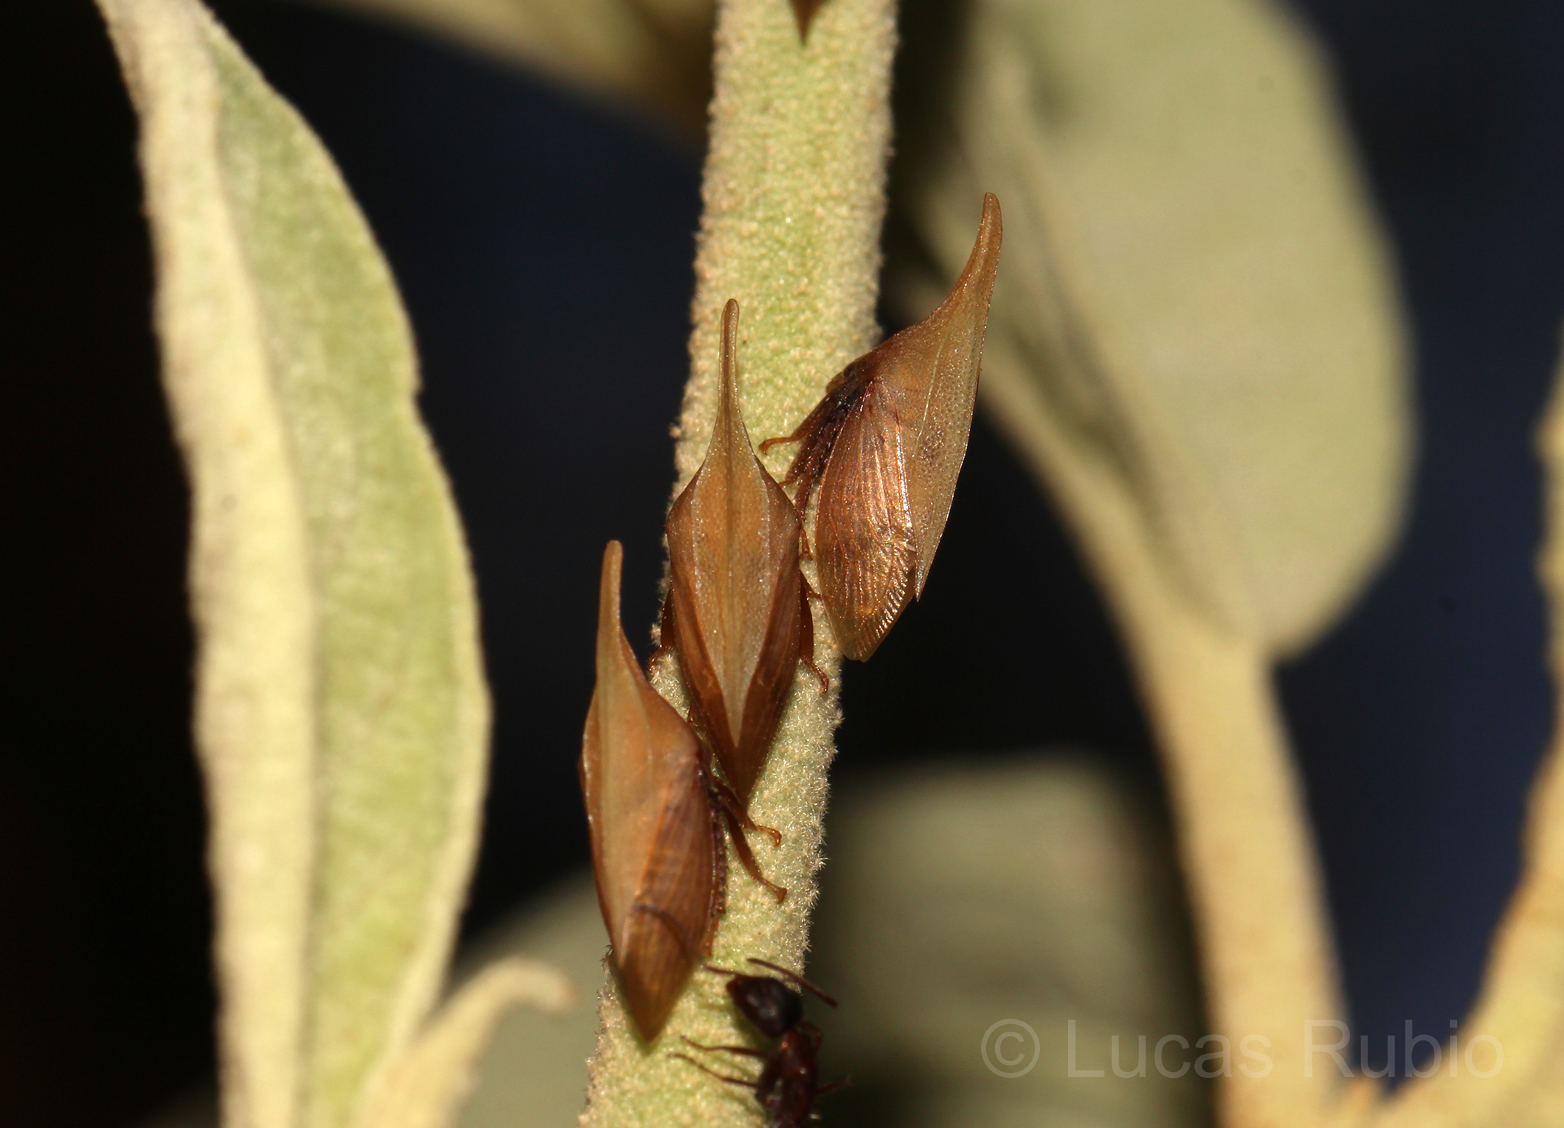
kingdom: Animalia
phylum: Arthropoda
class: Insecta
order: Hemiptera
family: Membracidae
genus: Enchenopa
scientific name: Enchenopa squamigera
